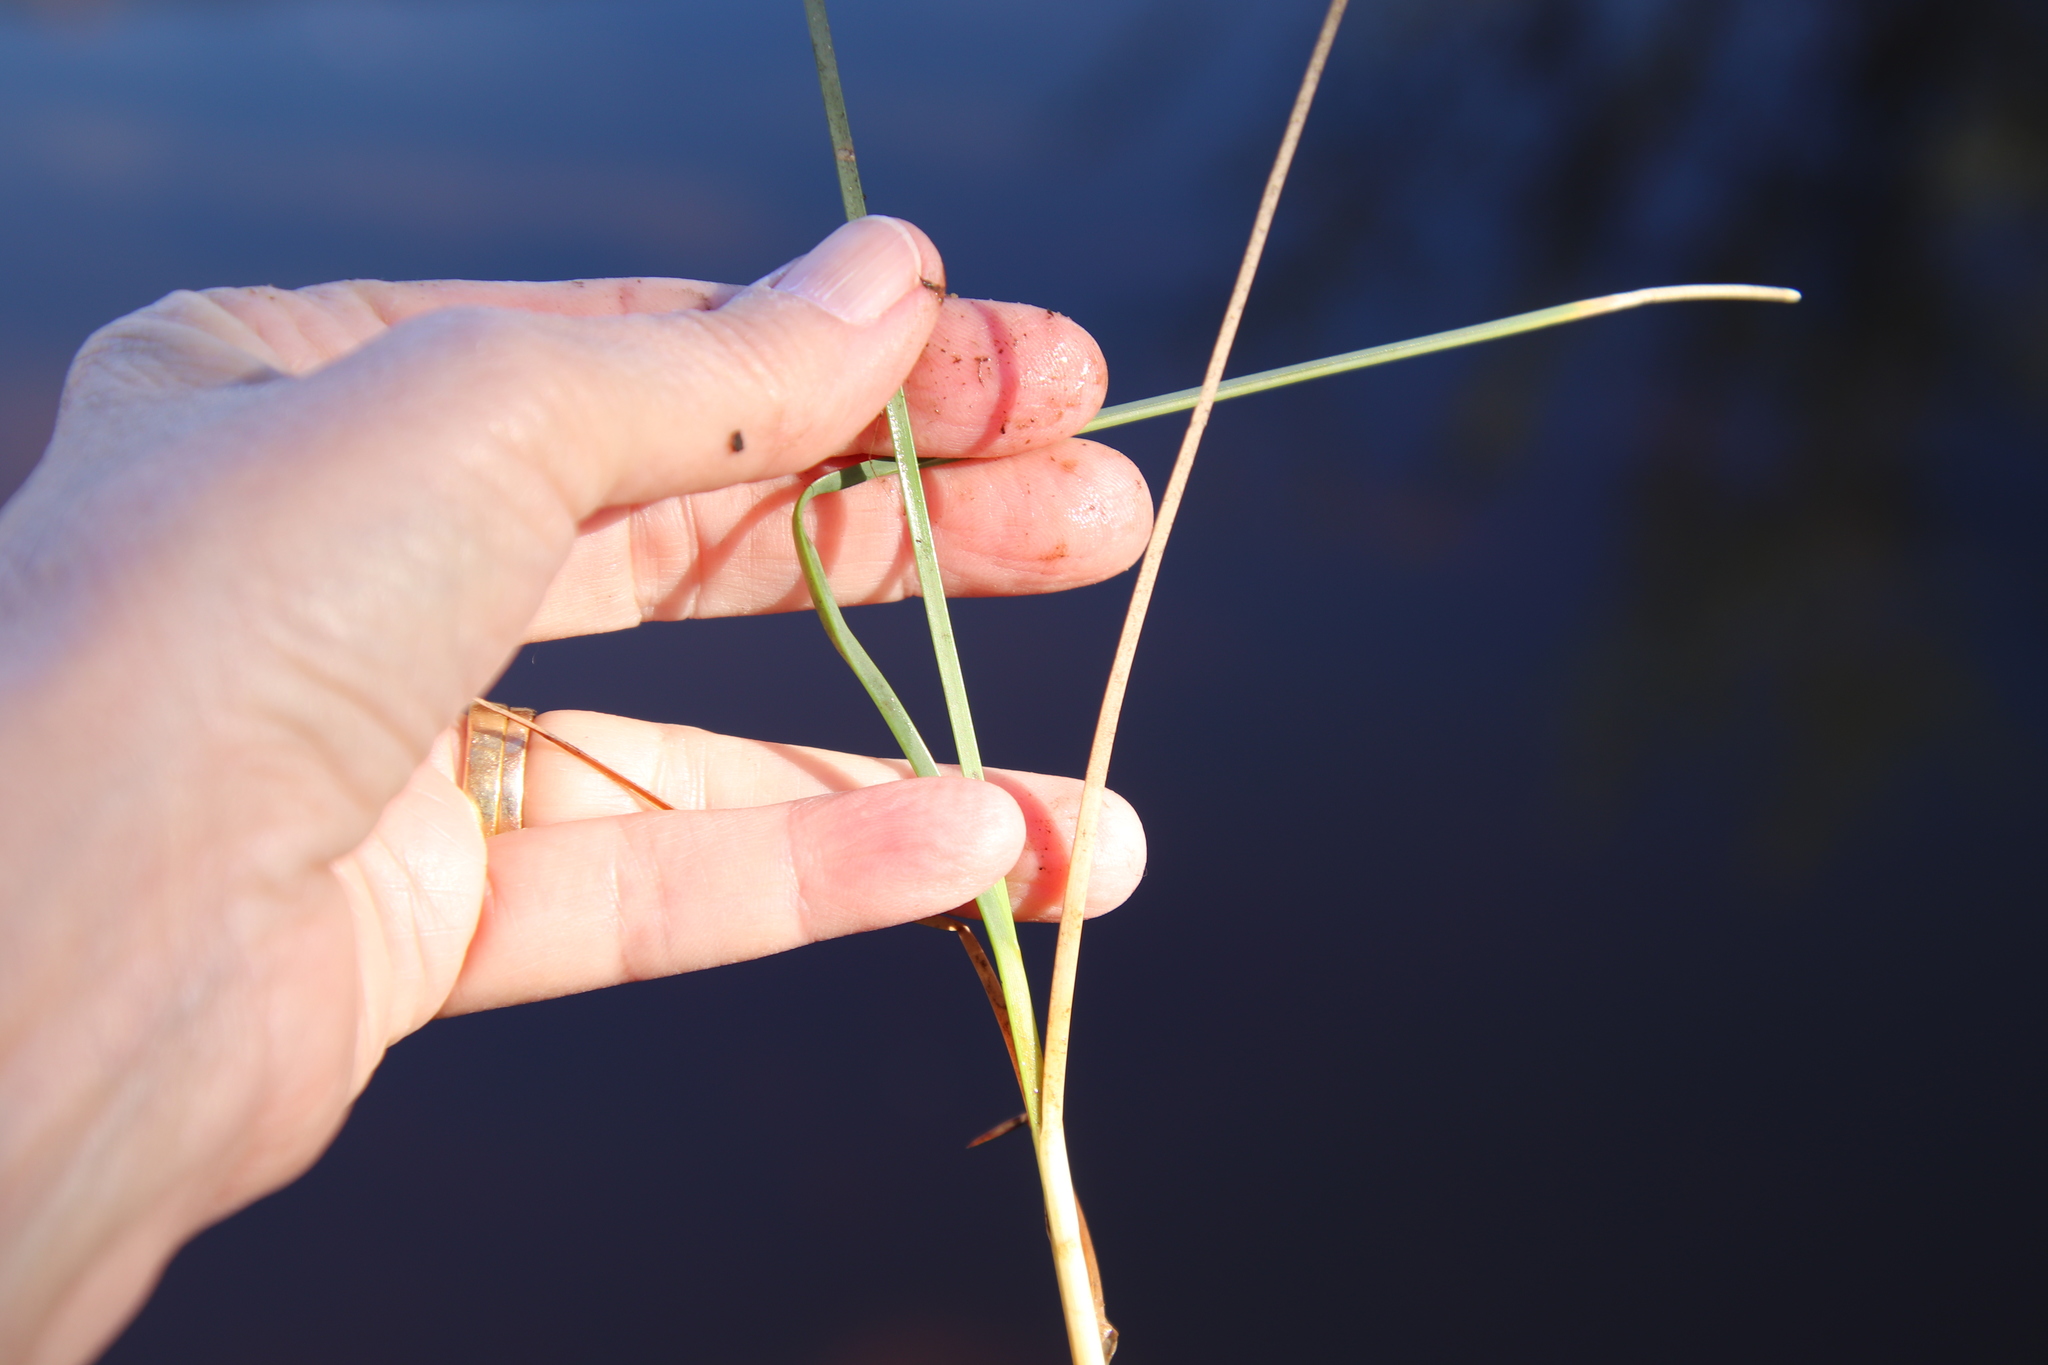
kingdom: Plantae
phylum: Tracheophyta
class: Liliopsida
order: Poales
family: Cyperaceae
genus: Schoenoplectus
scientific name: Schoenoplectus pungens
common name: Sharp club-rush
